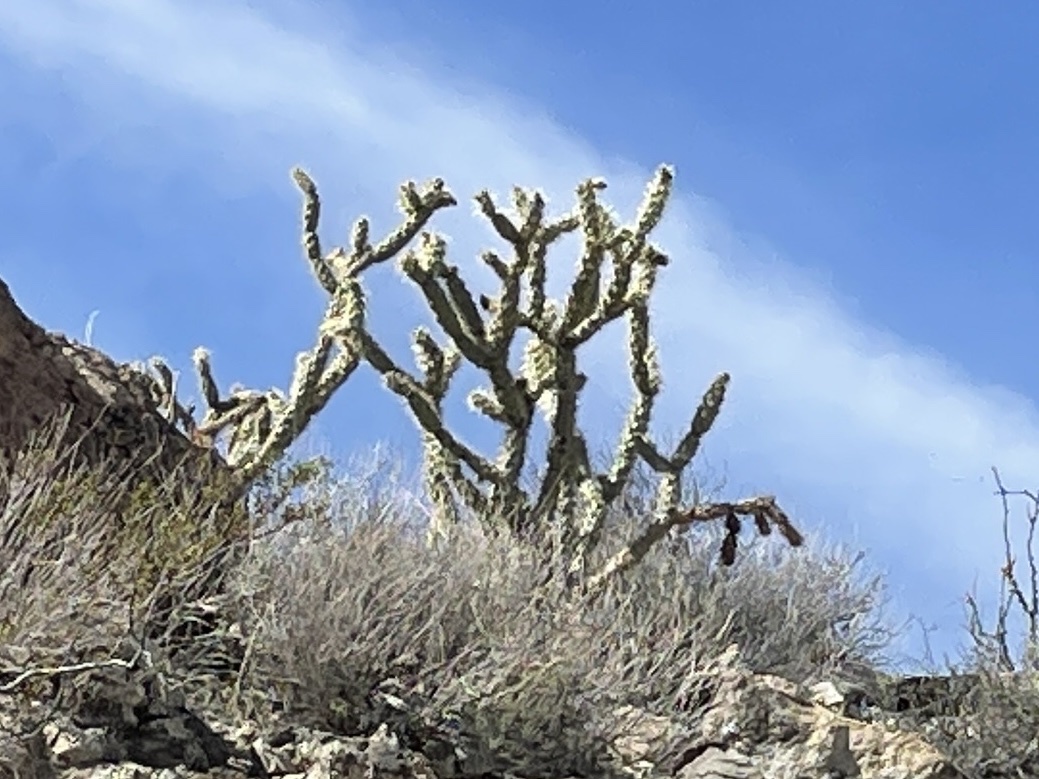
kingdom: Plantae
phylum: Tracheophyta
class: Magnoliopsida
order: Caryophyllales
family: Cactaceae
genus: Cylindropuntia
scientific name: Cylindropuntia acanthocarpa
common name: Buckhorn cholla
